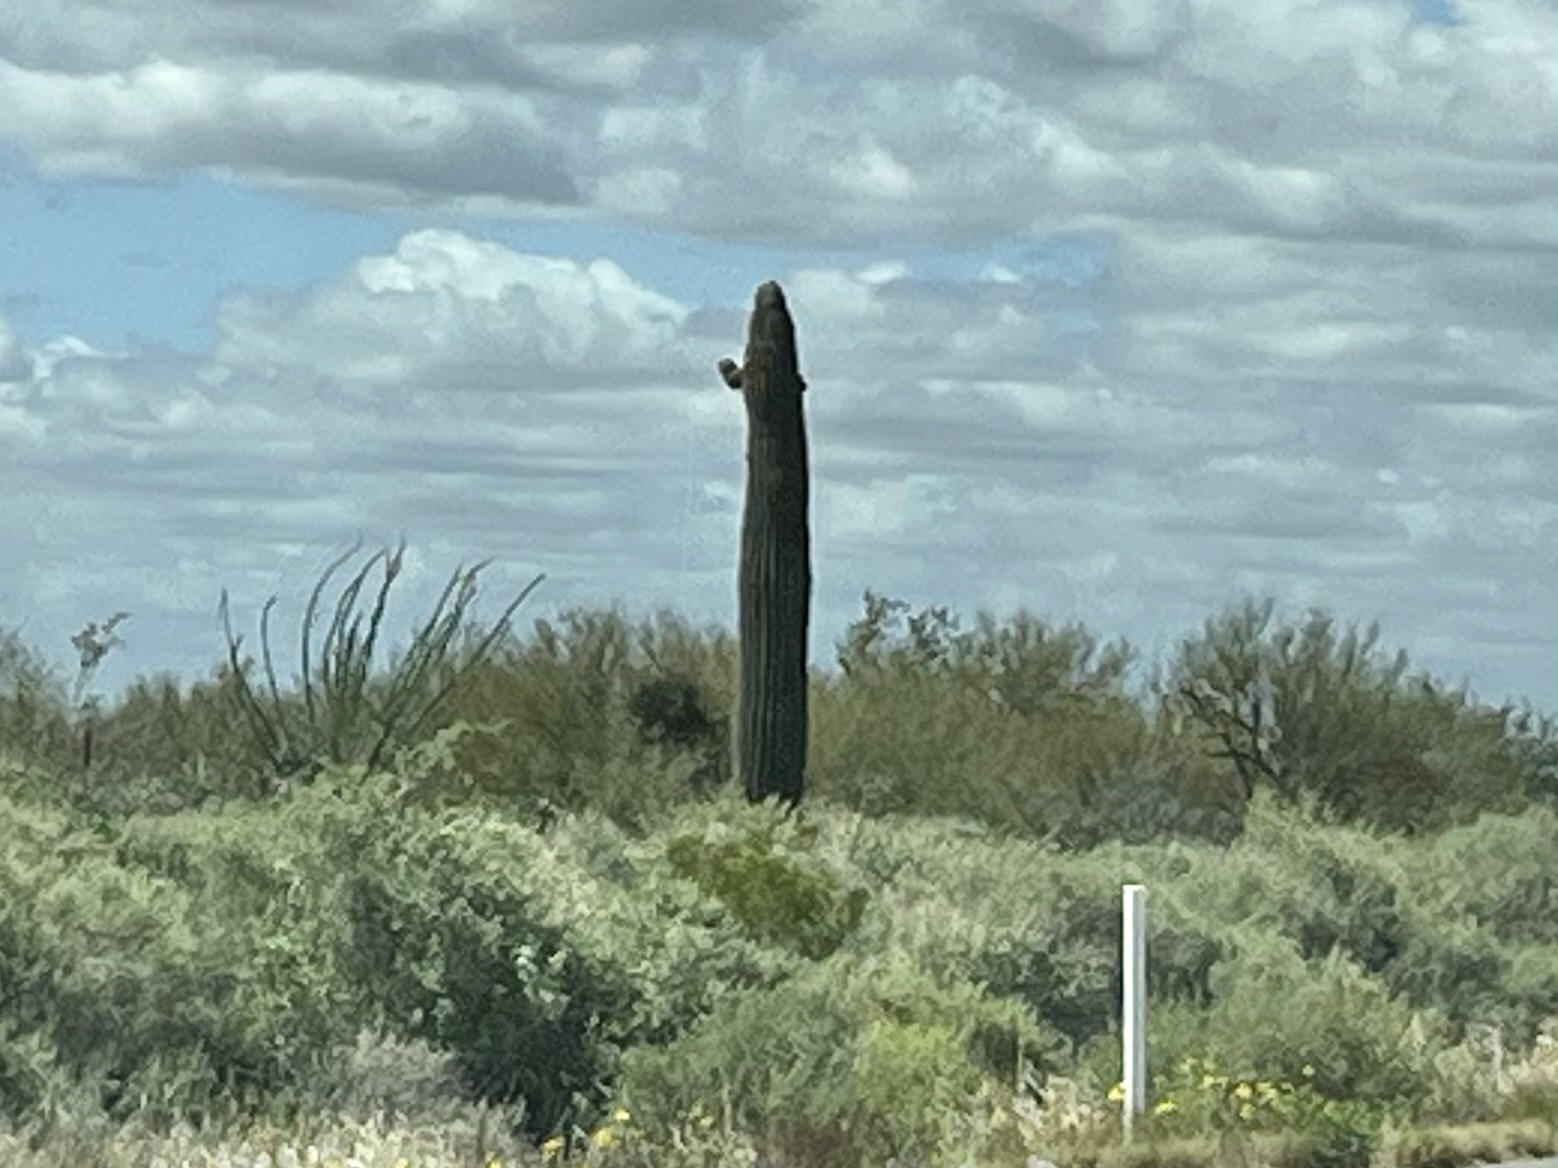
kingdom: Plantae
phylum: Tracheophyta
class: Magnoliopsida
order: Caryophyllales
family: Cactaceae
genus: Carnegiea
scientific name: Carnegiea gigantea
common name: Saguaro
